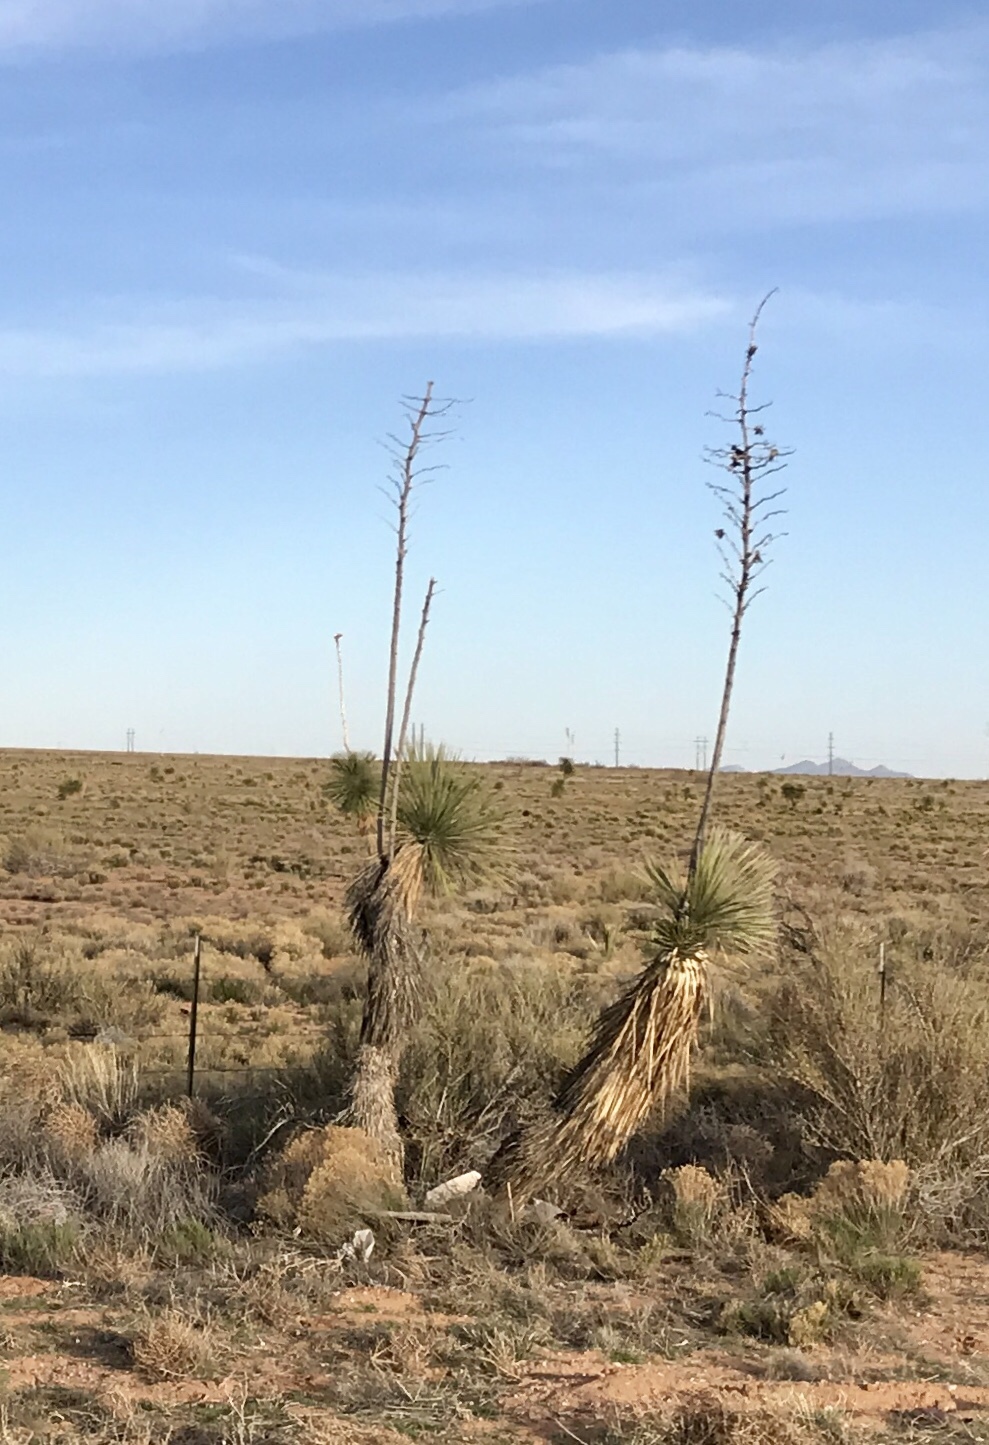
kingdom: Plantae
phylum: Tracheophyta
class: Liliopsida
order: Asparagales
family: Asparagaceae
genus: Yucca
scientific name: Yucca elata
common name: Palmella
